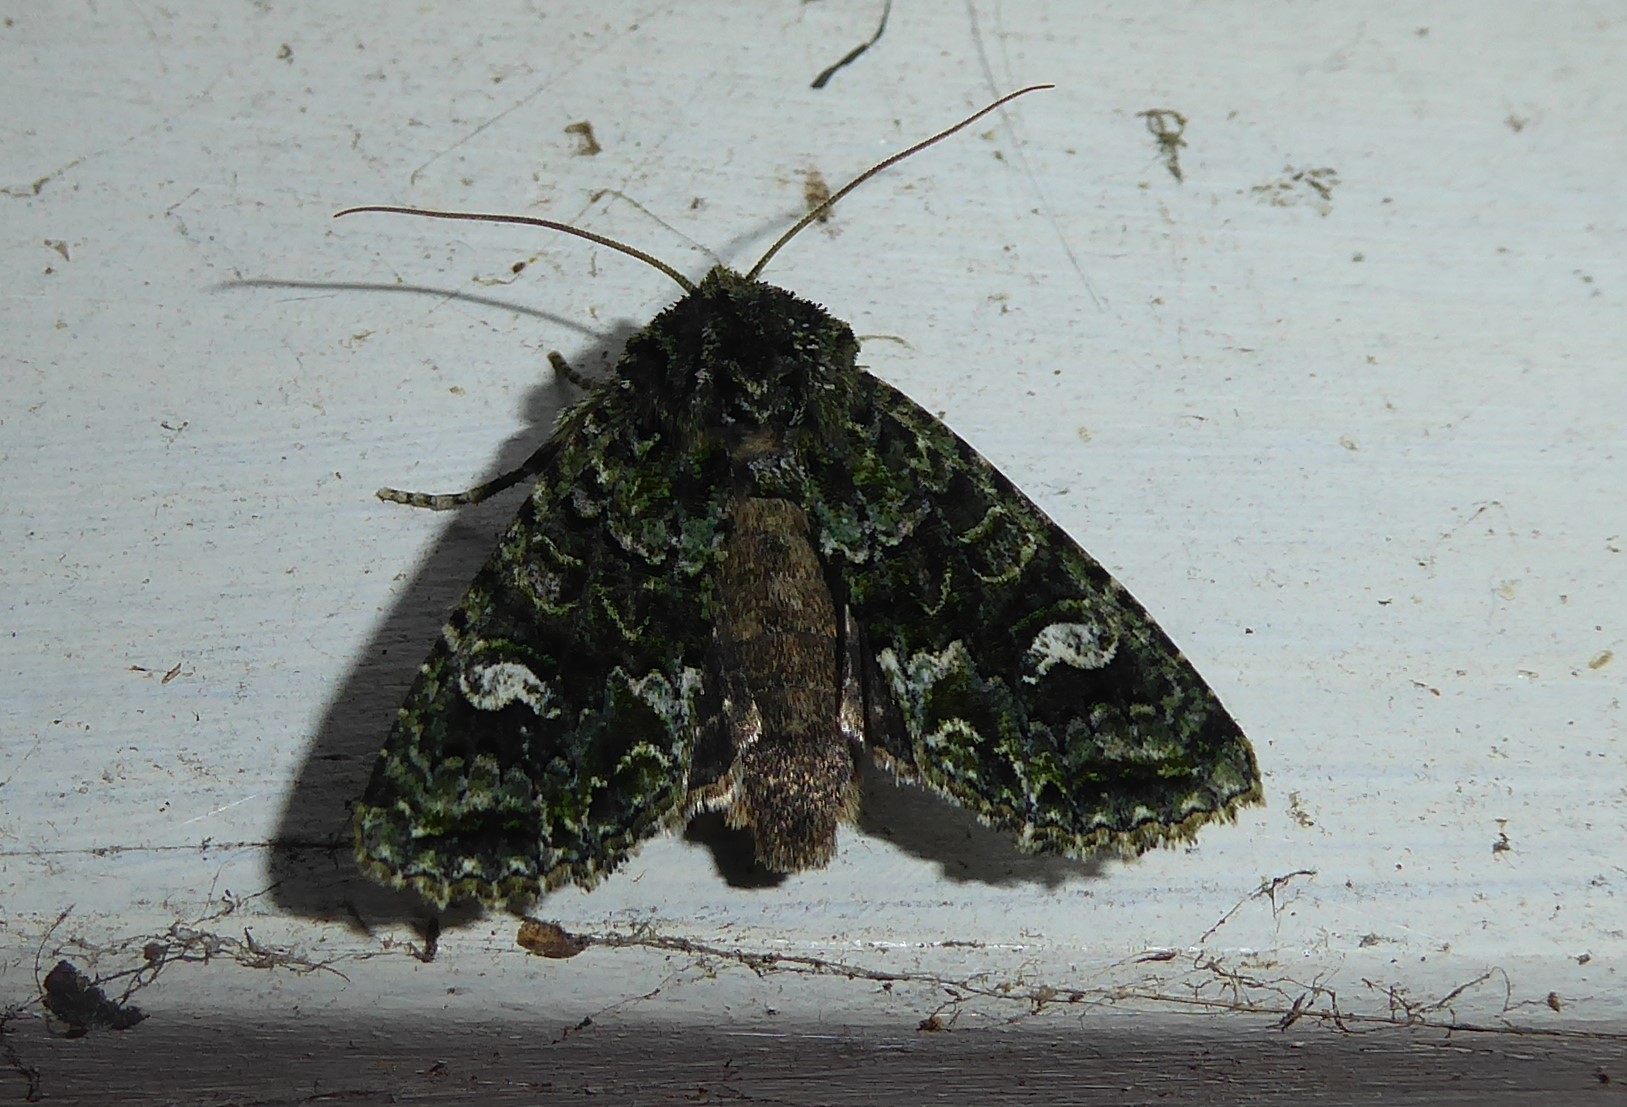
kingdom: Animalia
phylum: Arthropoda
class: Insecta
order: Lepidoptera
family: Noctuidae
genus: Ichneutica
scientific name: Ichneutica
